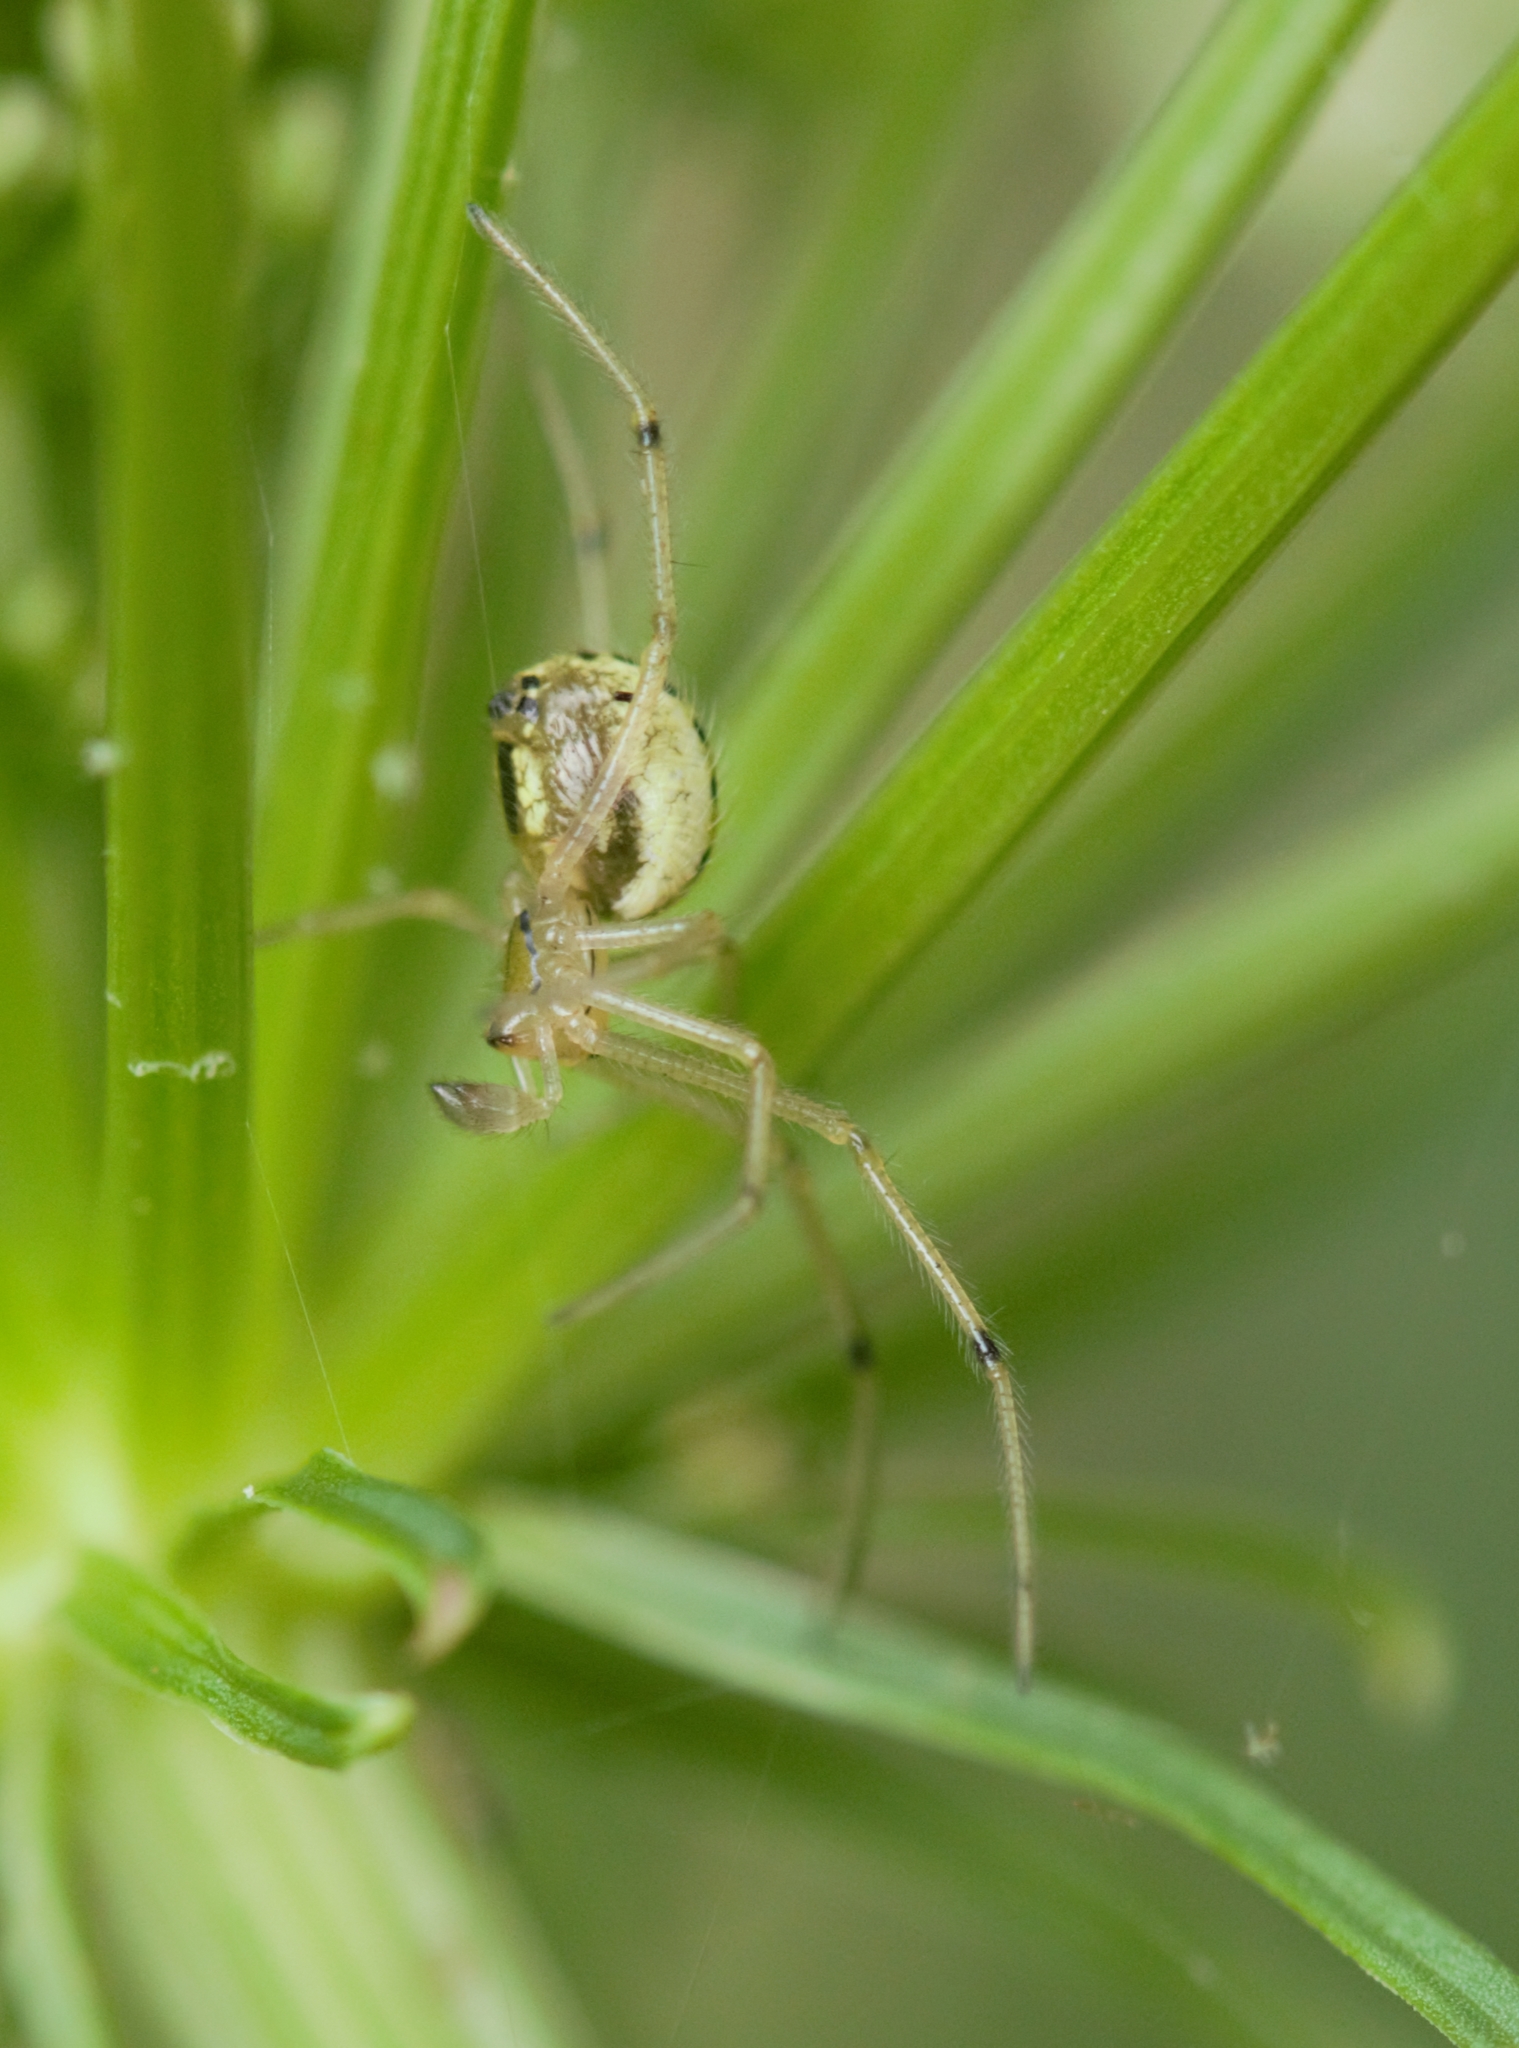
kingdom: Animalia
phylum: Arthropoda
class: Arachnida
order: Araneae
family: Theridiidae
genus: Enoplognatha
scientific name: Enoplognatha ovata
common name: Common candy-striped spider
